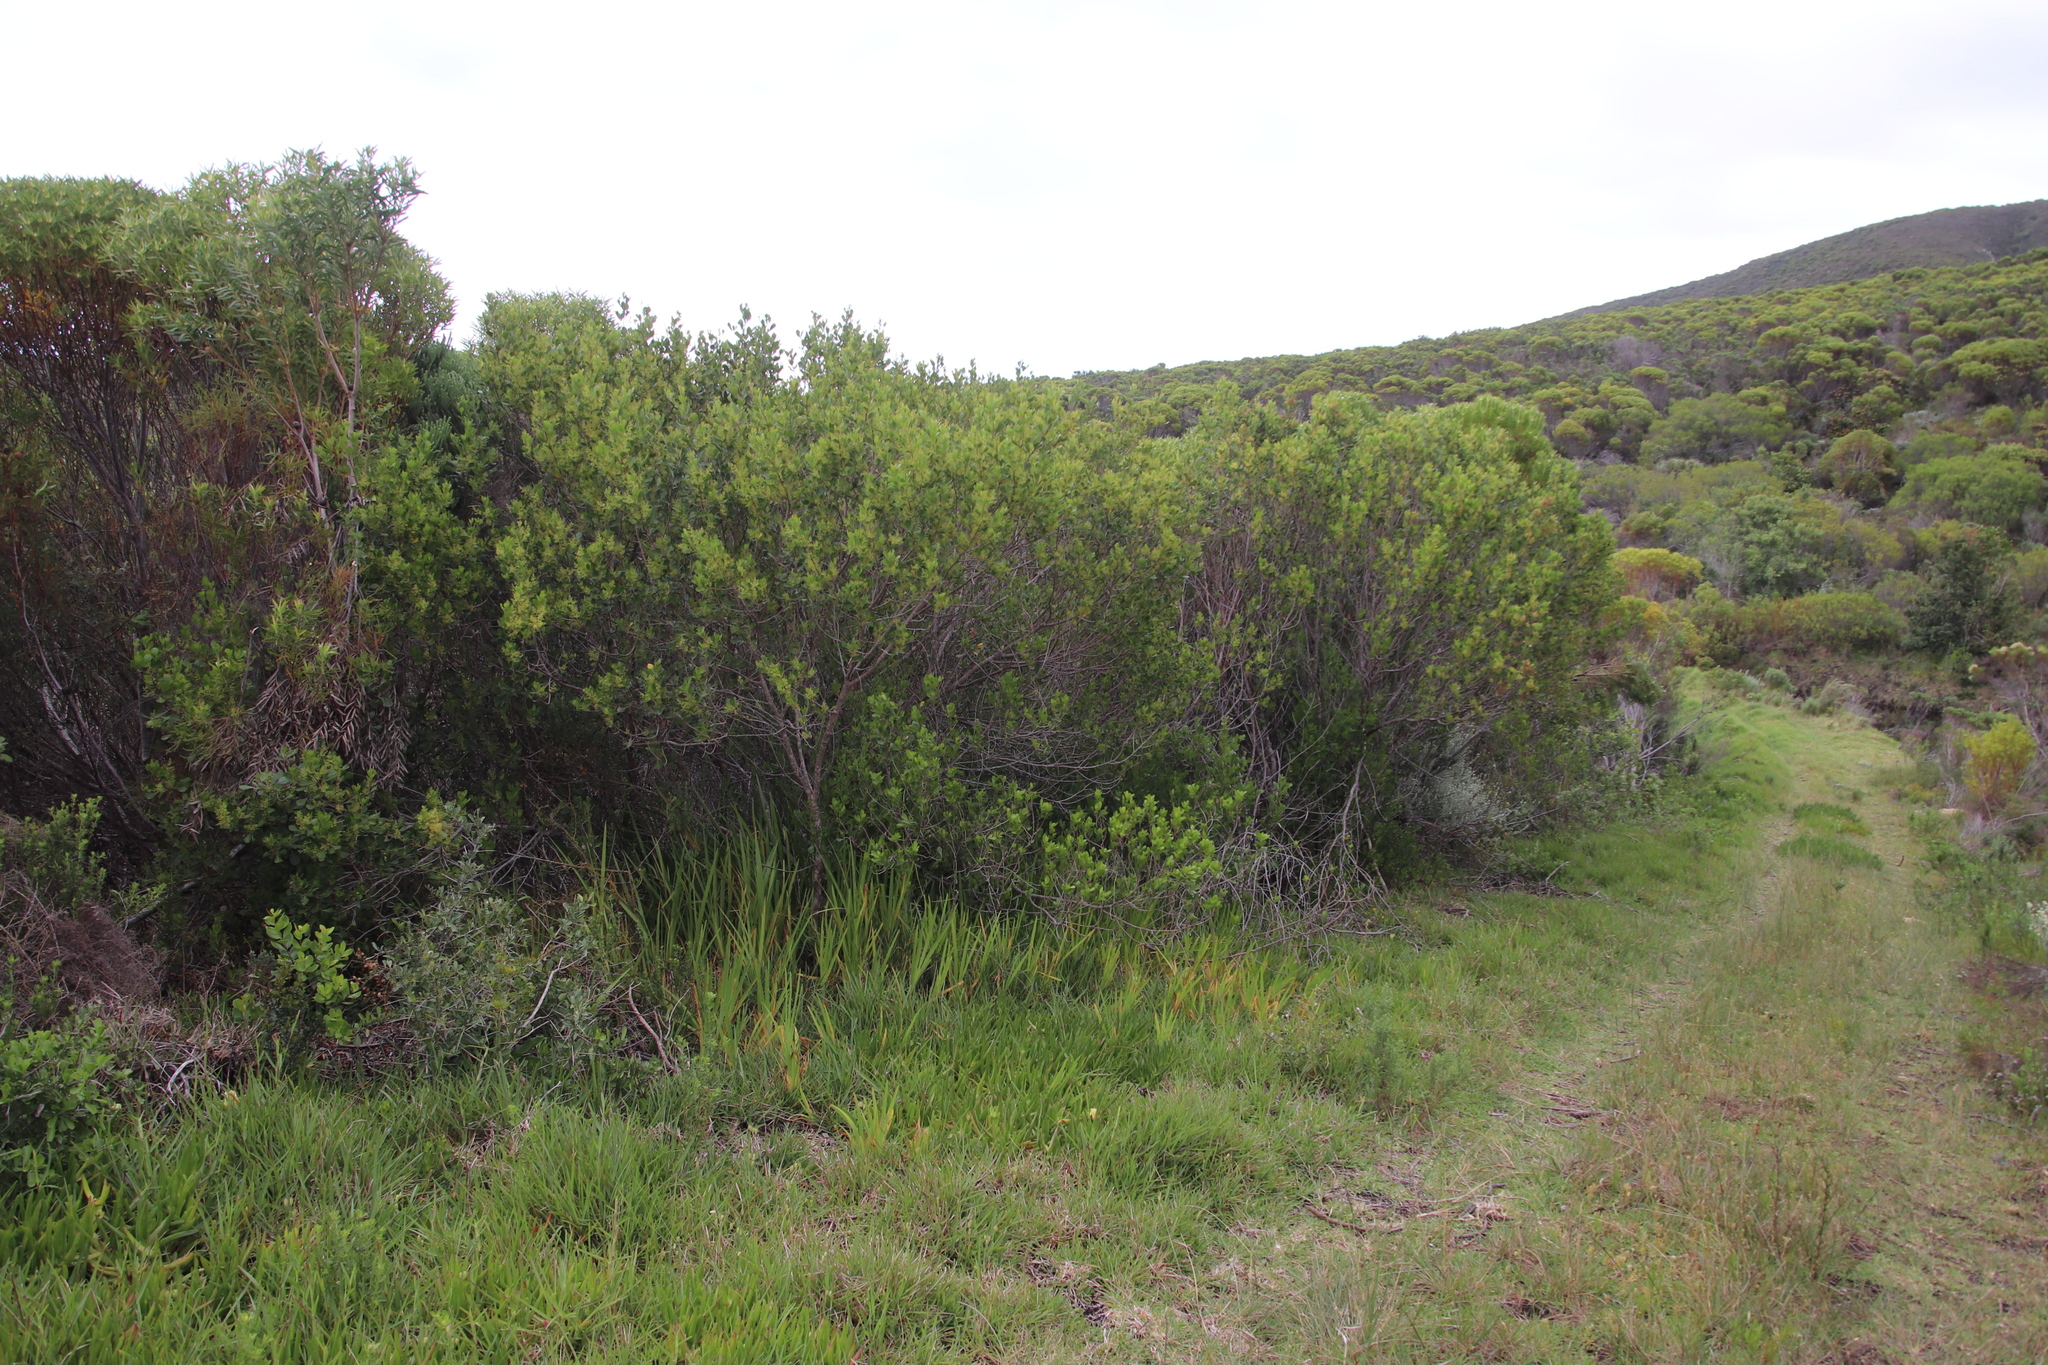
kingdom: Plantae
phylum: Tracheophyta
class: Magnoliopsida
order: Sapindales
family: Anacardiaceae
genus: Searsia
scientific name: Searsia lucida
